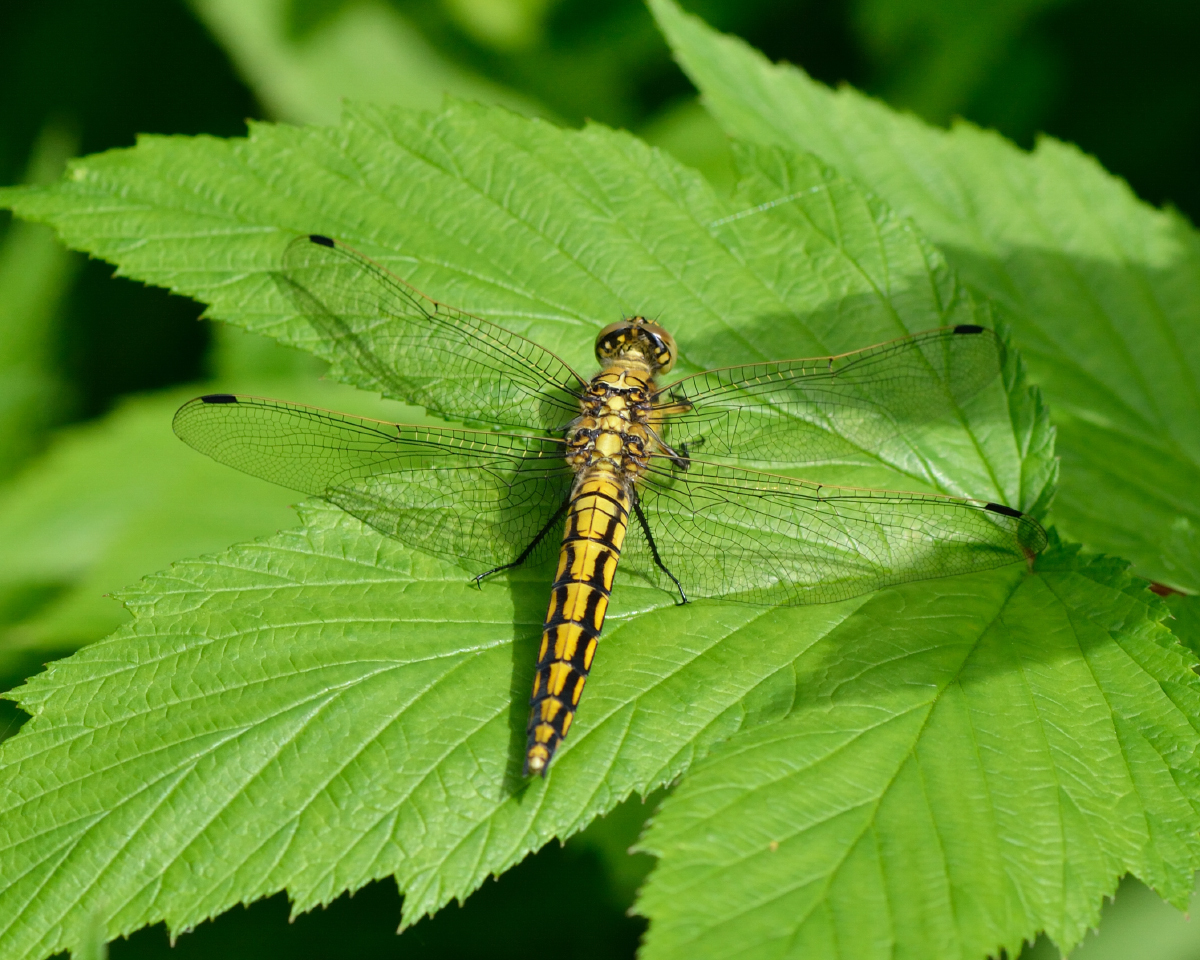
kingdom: Animalia
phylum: Arthropoda
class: Insecta
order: Odonata
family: Libellulidae
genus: Orthetrum
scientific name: Orthetrum cancellatum
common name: Black-tailed skimmer
